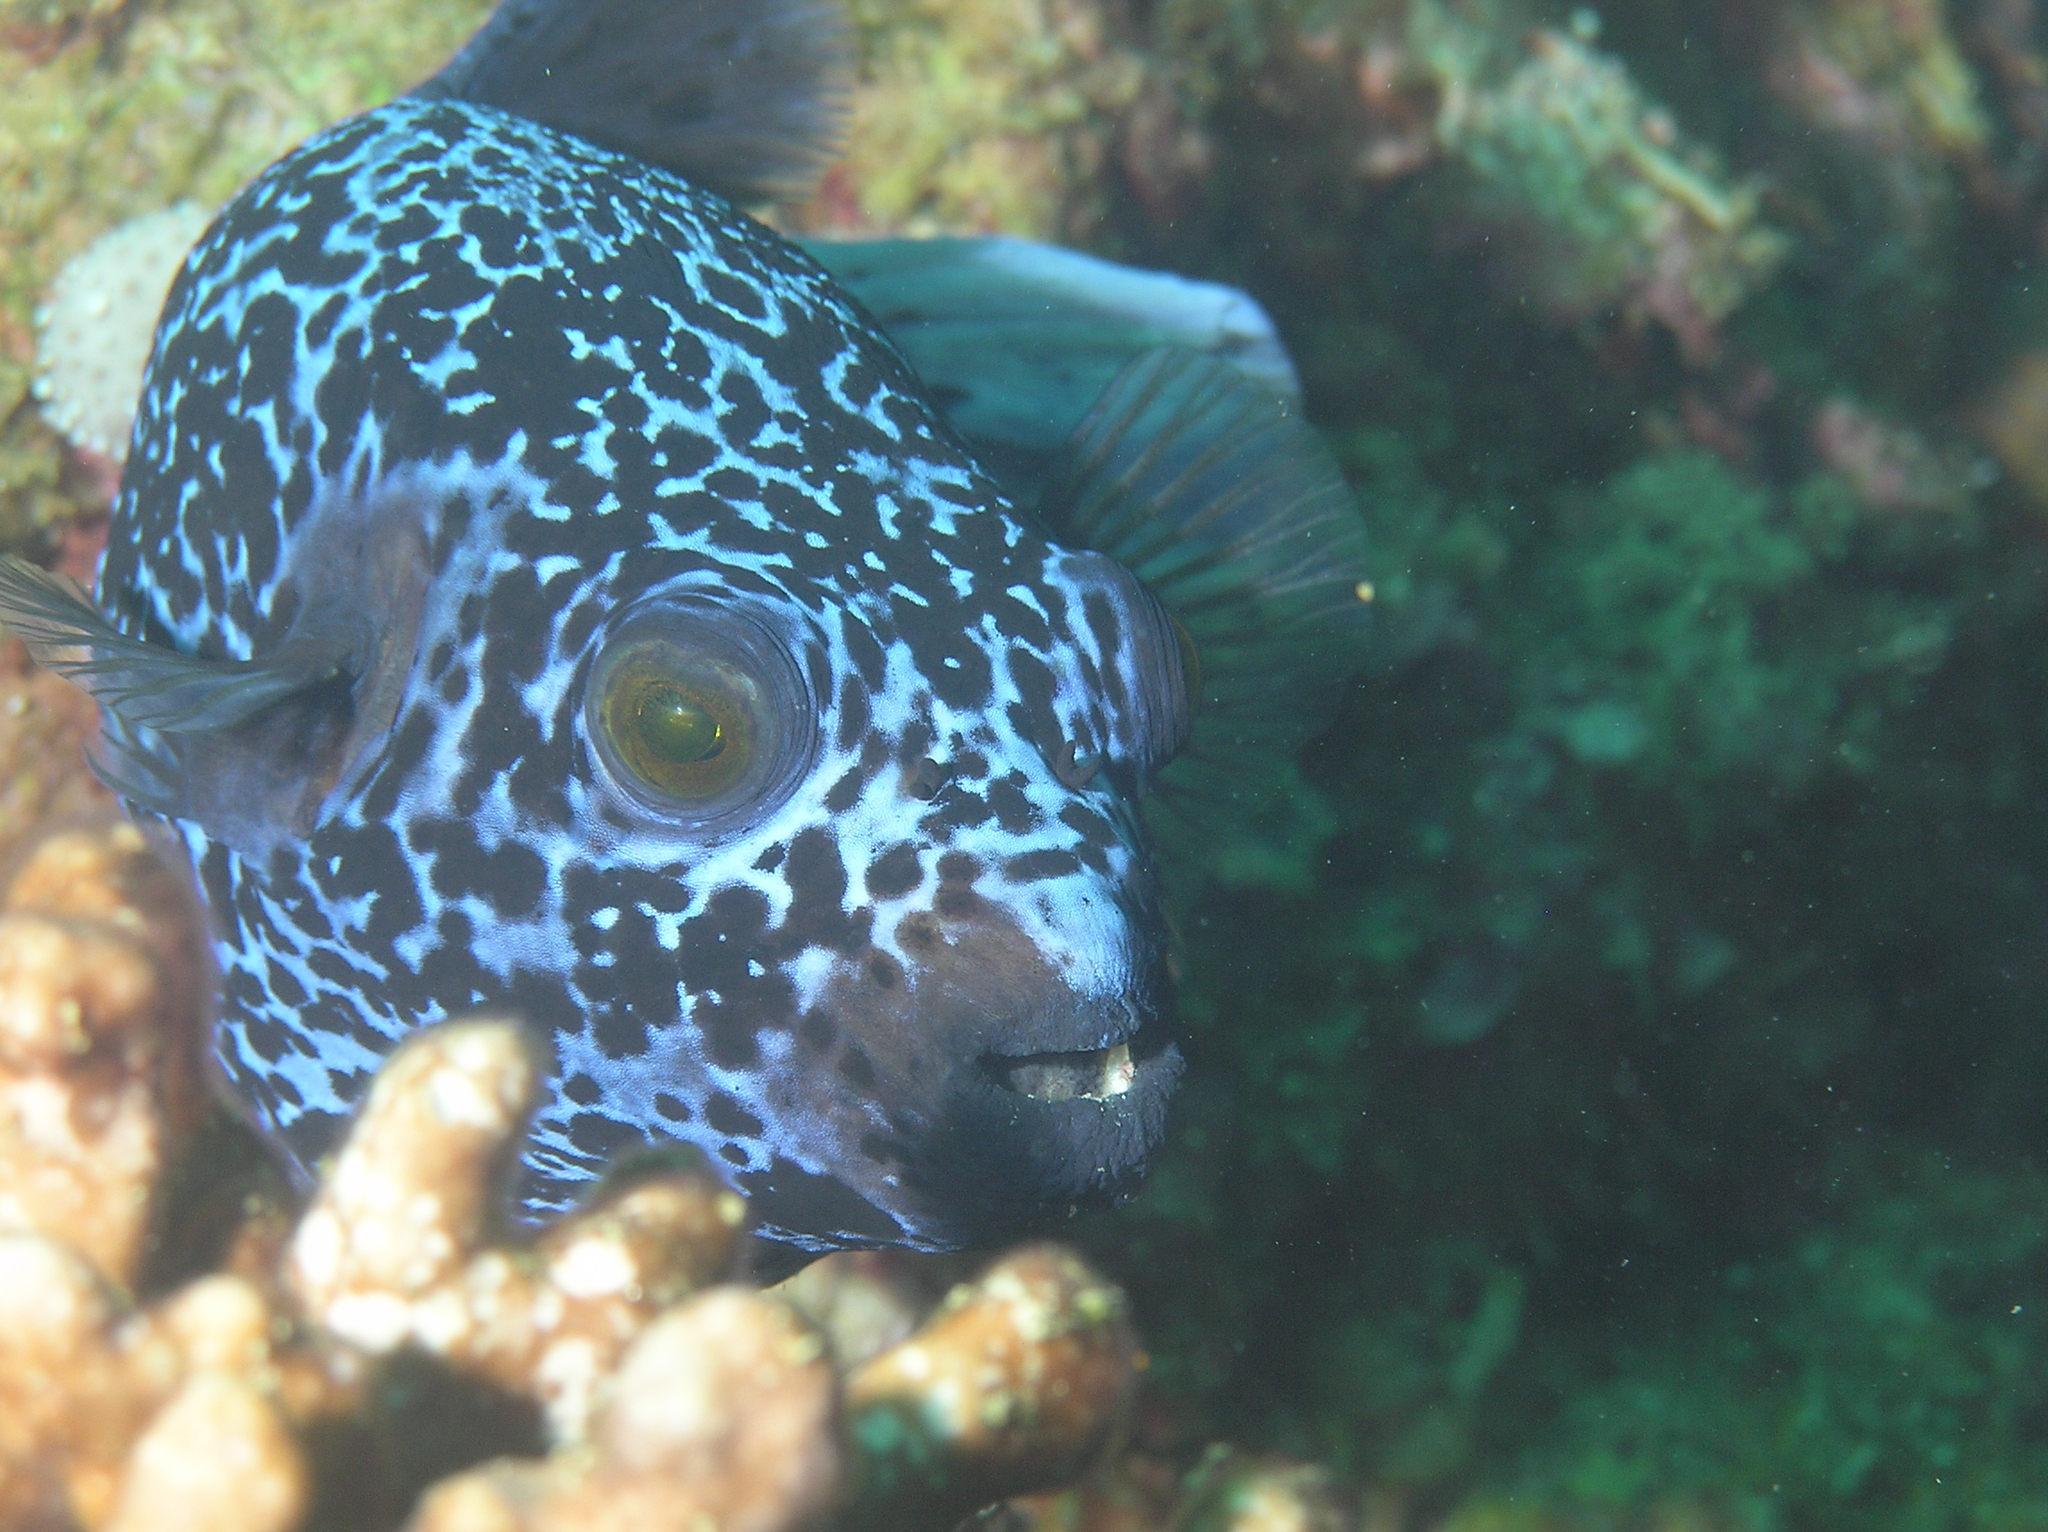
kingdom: Animalia
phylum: Chordata
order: Tetraodontiformes
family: Tetraodontidae
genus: Arothron
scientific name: Arothron nigropunctatus
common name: Black spotted blow fish
